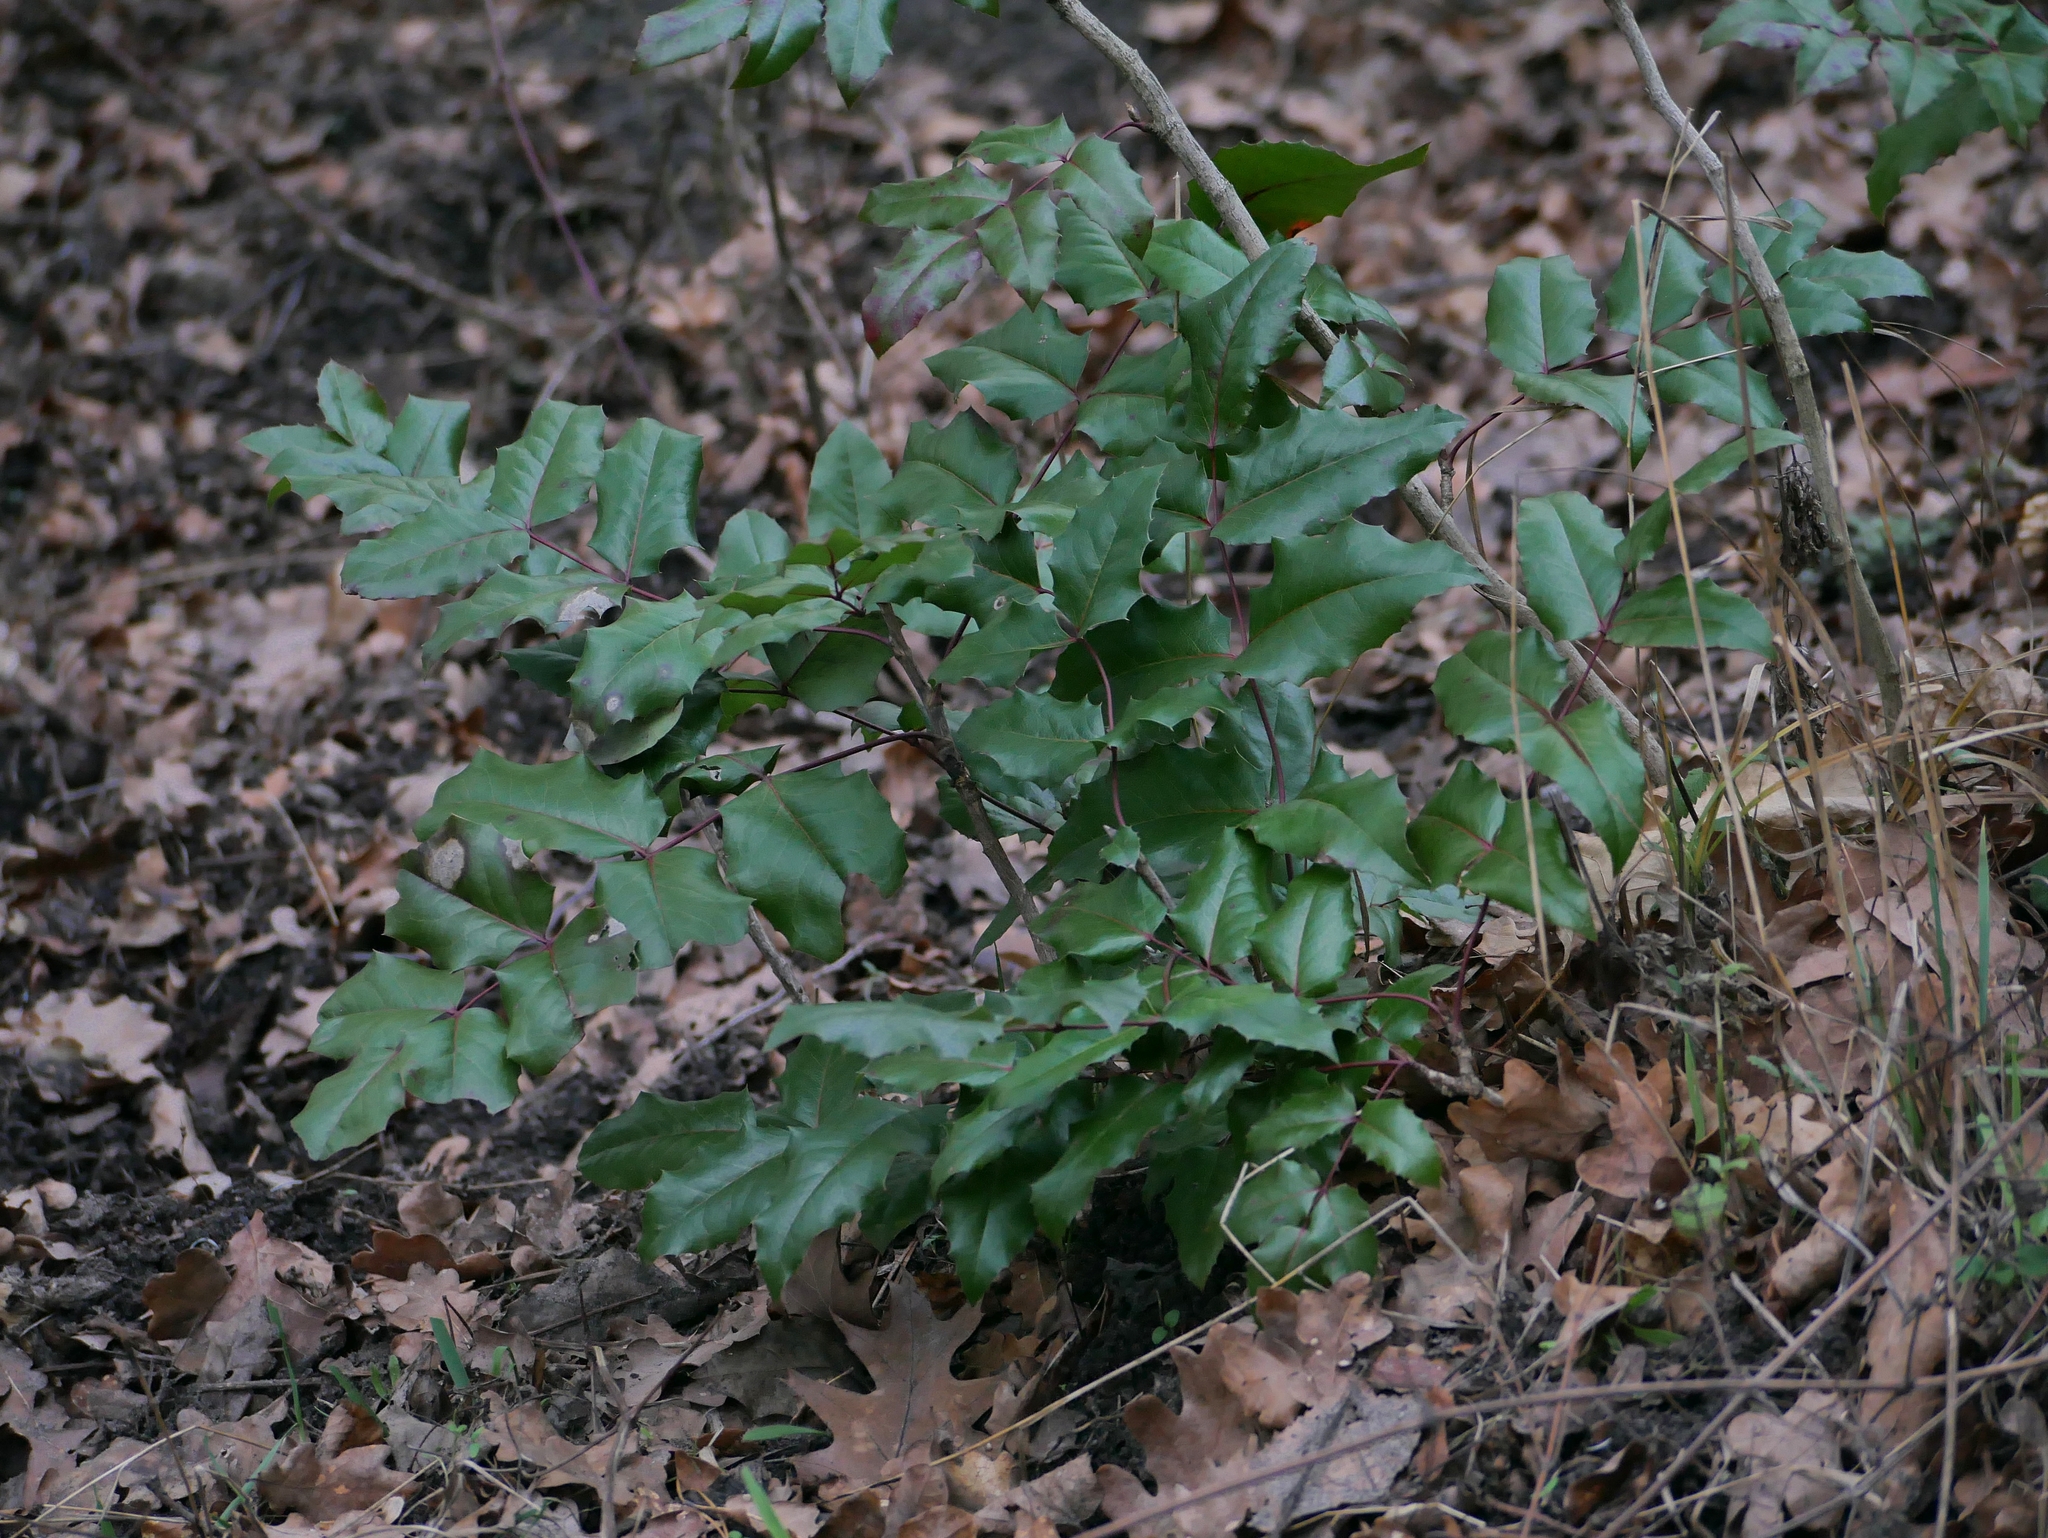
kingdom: Plantae
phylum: Tracheophyta
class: Magnoliopsida
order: Ranunculales
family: Berberidaceae
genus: Mahonia
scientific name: Mahonia aquifolium
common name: Oregon-grape
